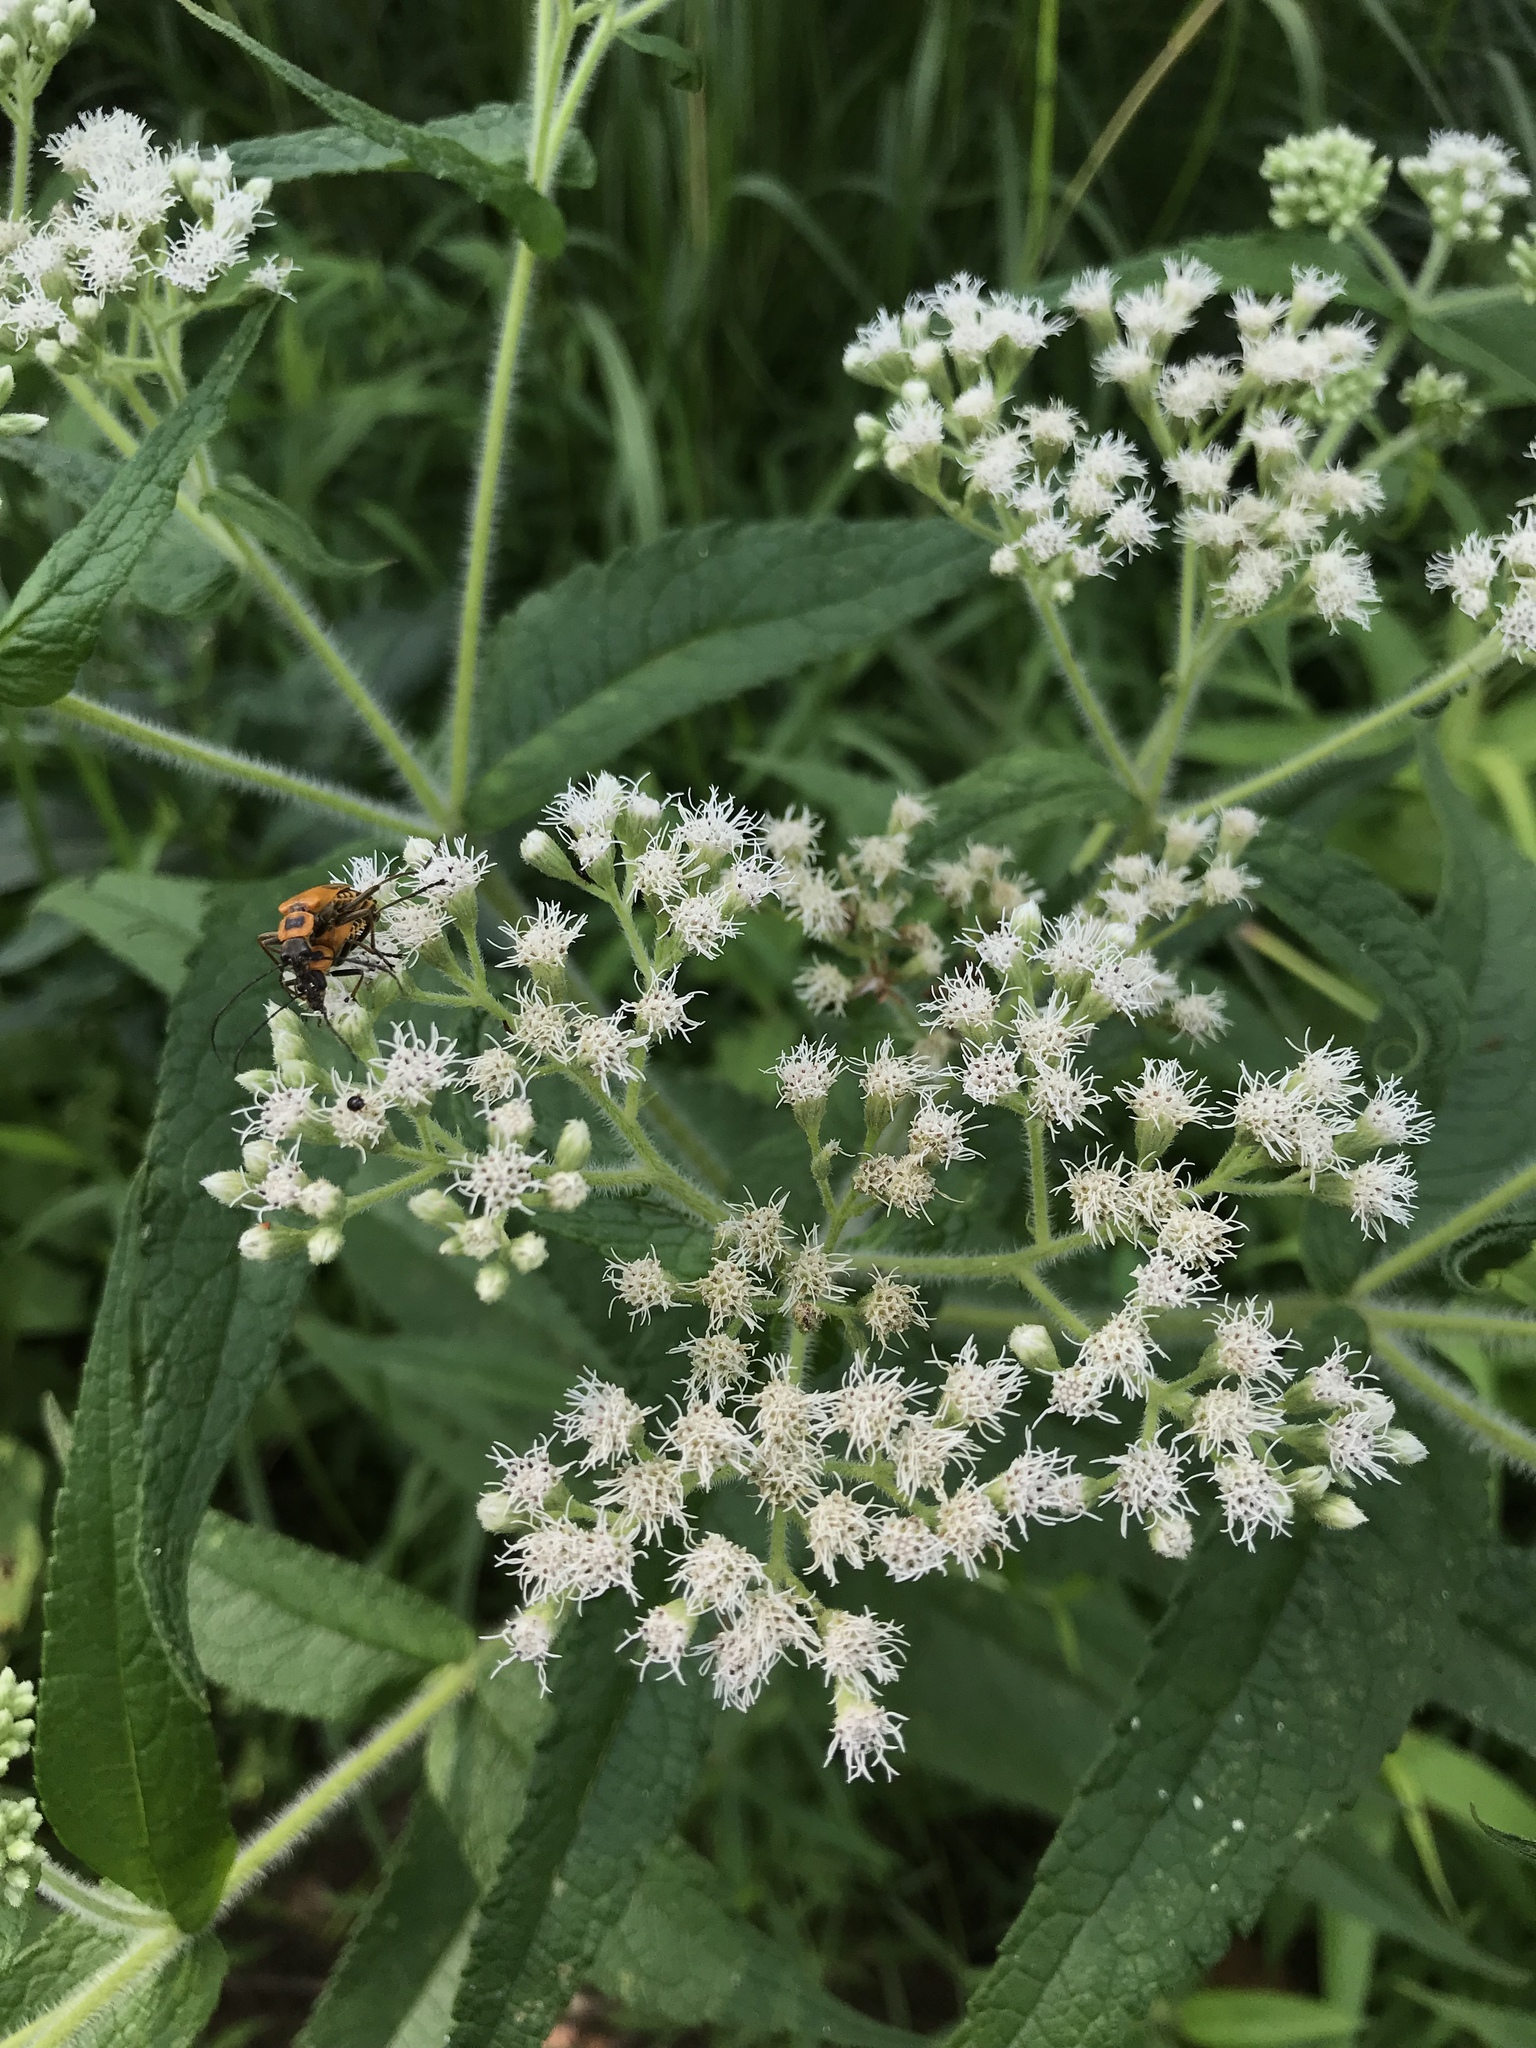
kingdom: Plantae
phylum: Tracheophyta
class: Magnoliopsida
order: Asterales
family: Asteraceae
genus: Eupatorium
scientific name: Eupatorium perfoliatum
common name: Boneset
